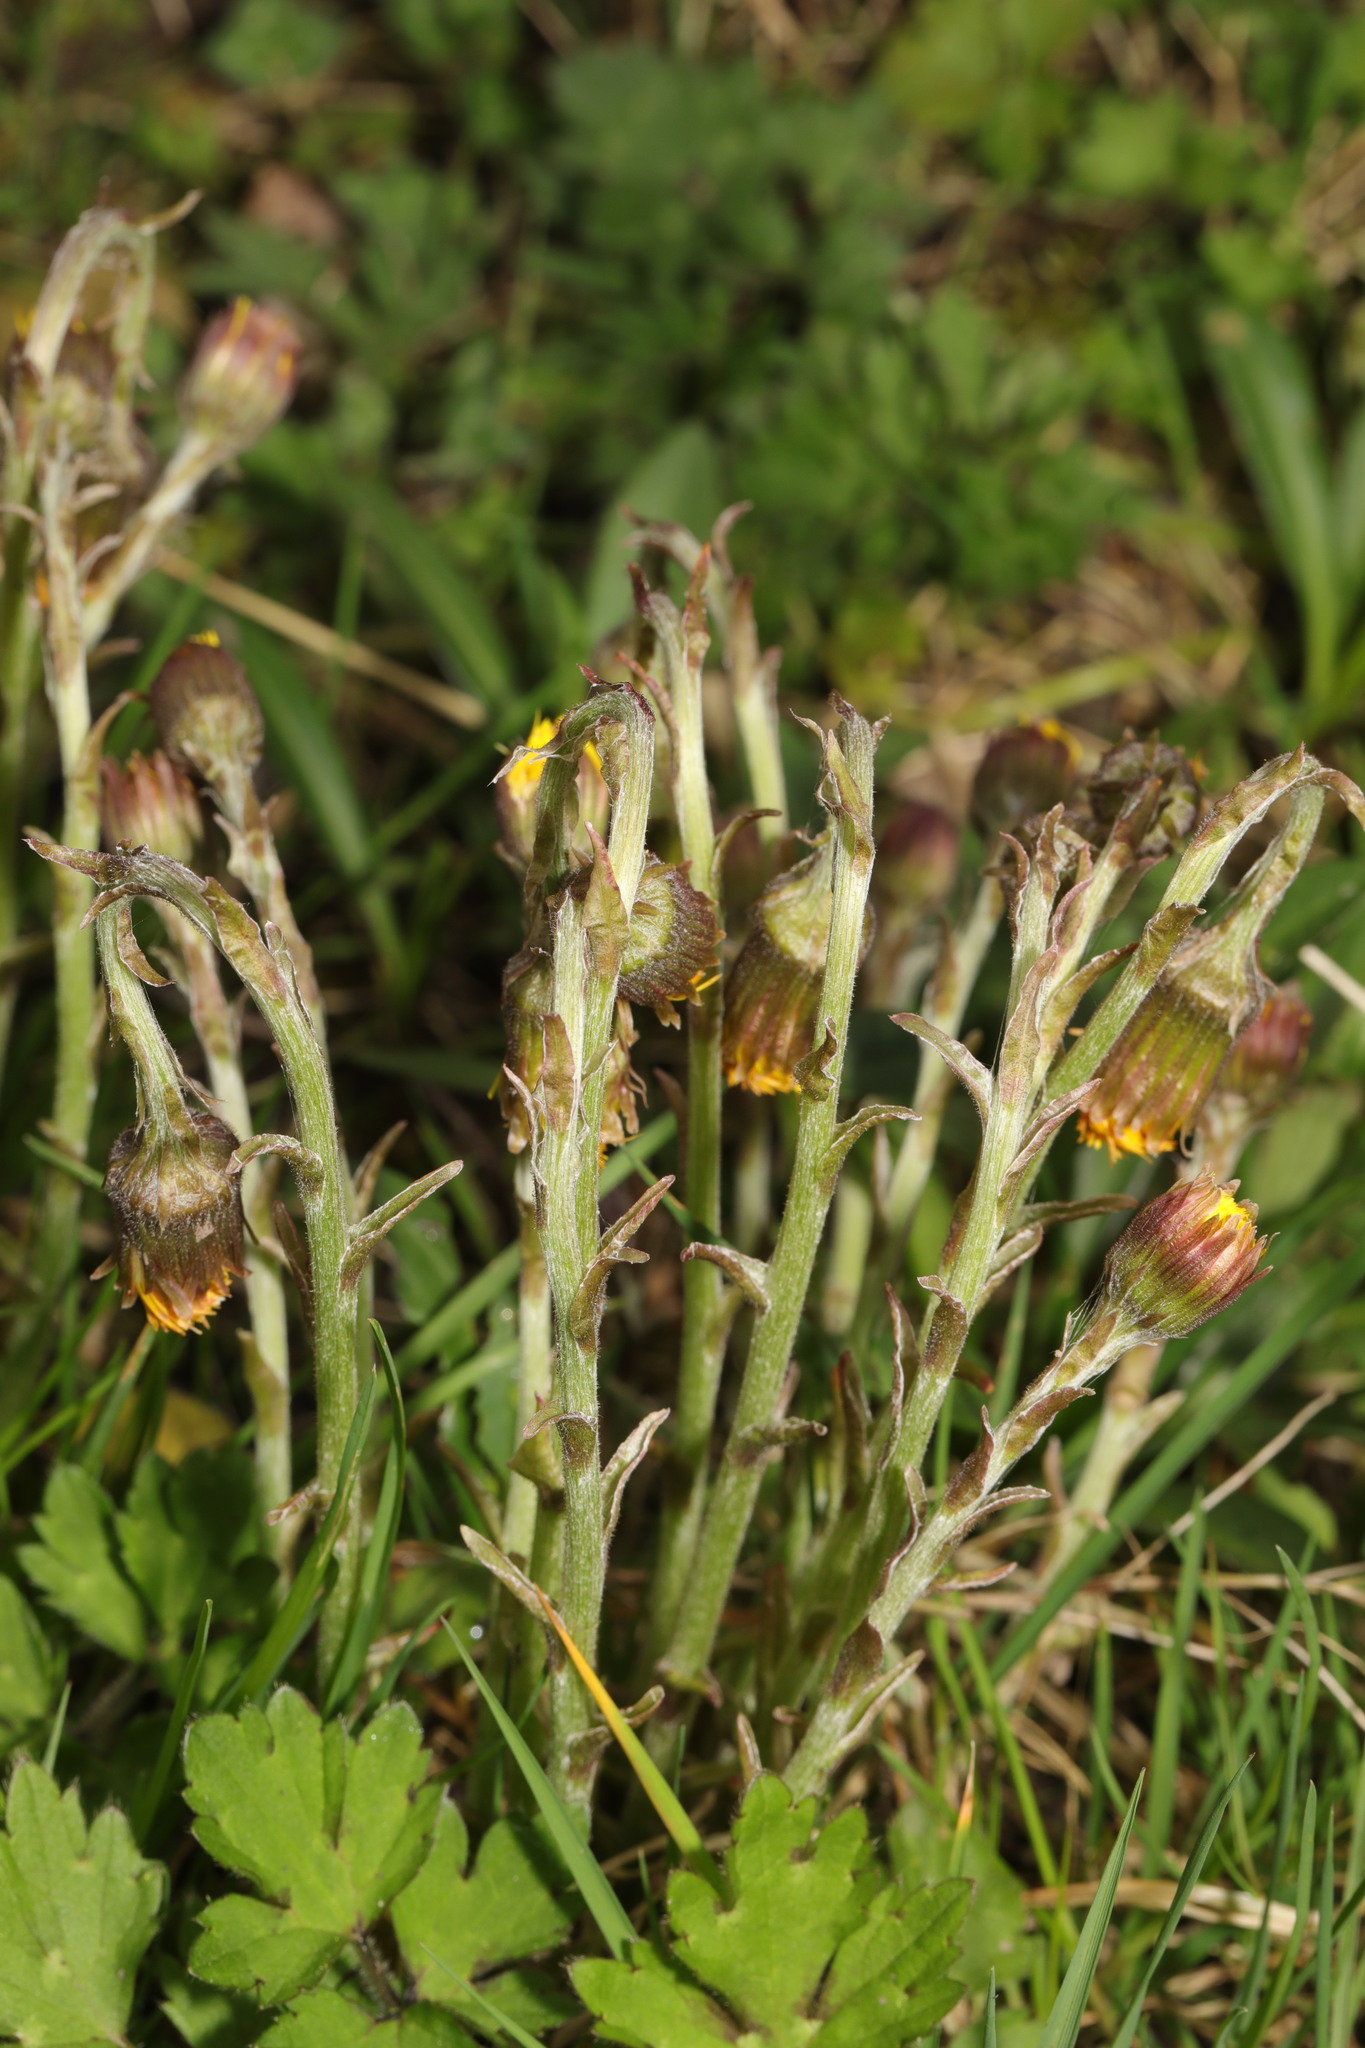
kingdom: Plantae
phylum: Tracheophyta
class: Magnoliopsida
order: Asterales
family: Asteraceae
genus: Tussilago
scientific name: Tussilago farfara
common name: Coltsfoot
